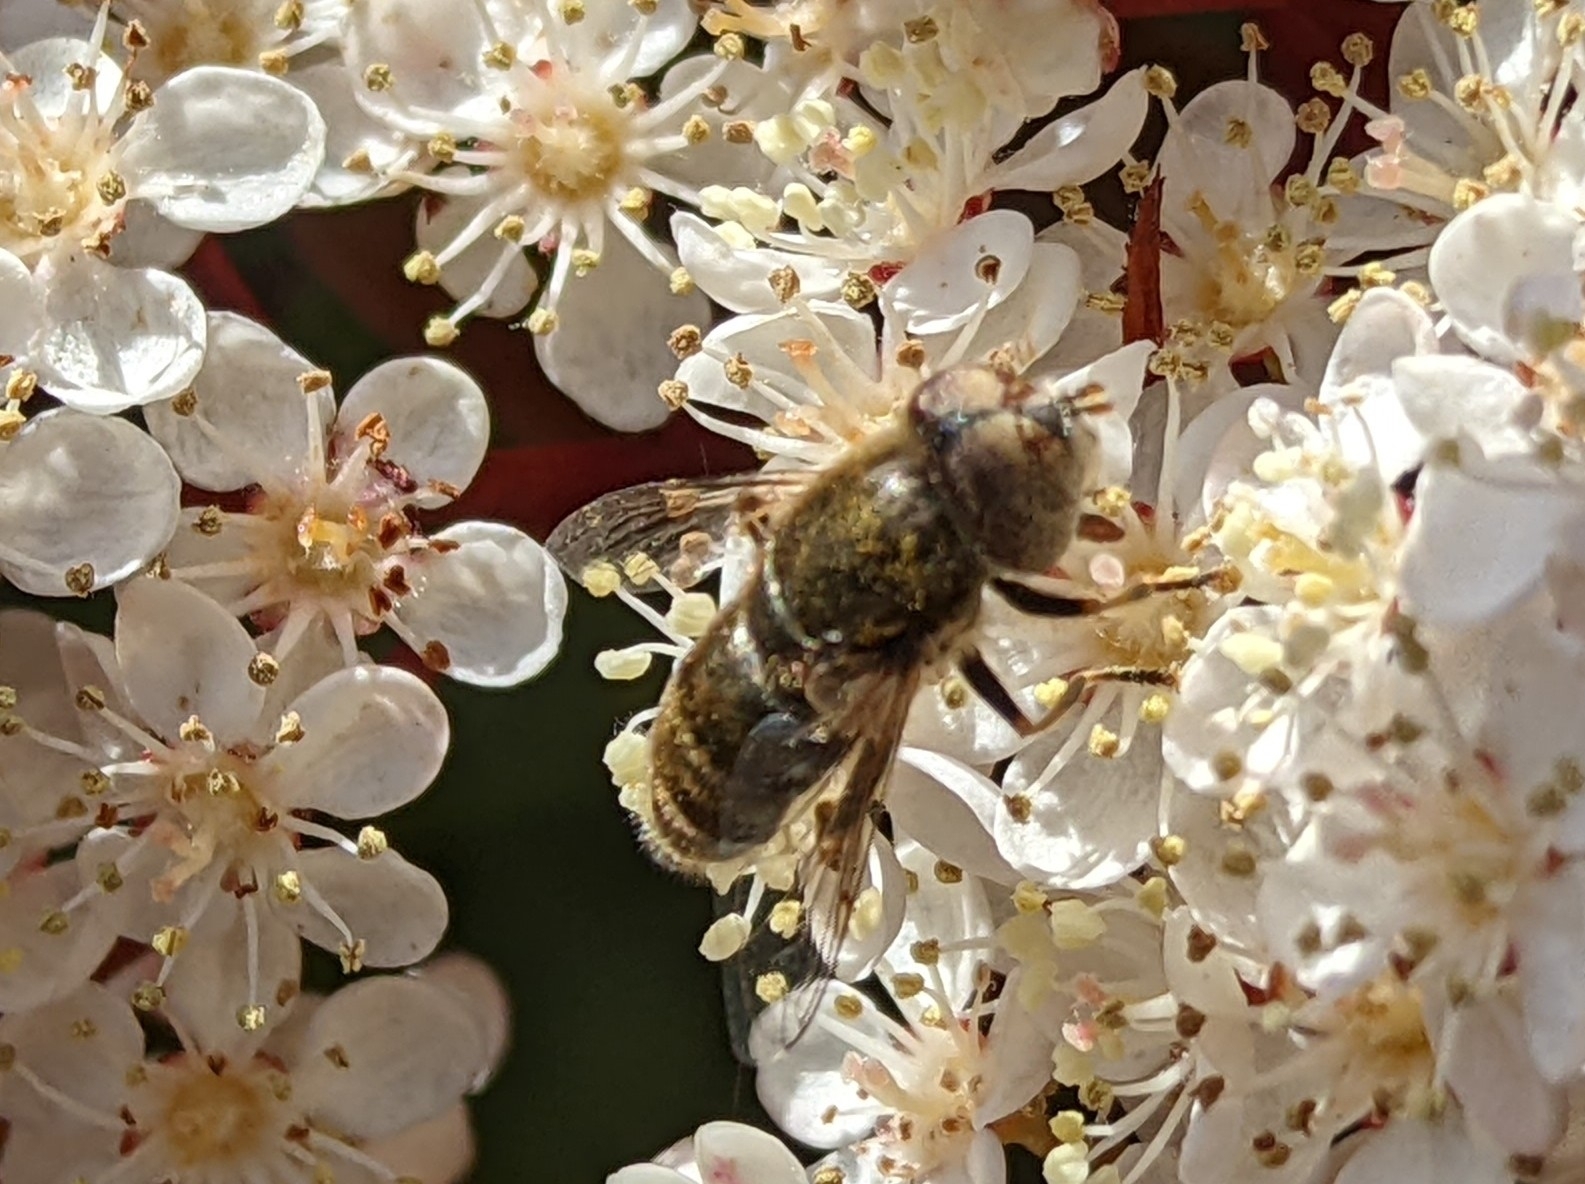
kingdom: Animalia
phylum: Arthropoda
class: Insecta
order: Diptera
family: Syrphidae
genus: Eristalinus
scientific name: Eristalinus aeneus
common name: Syrphid fly
